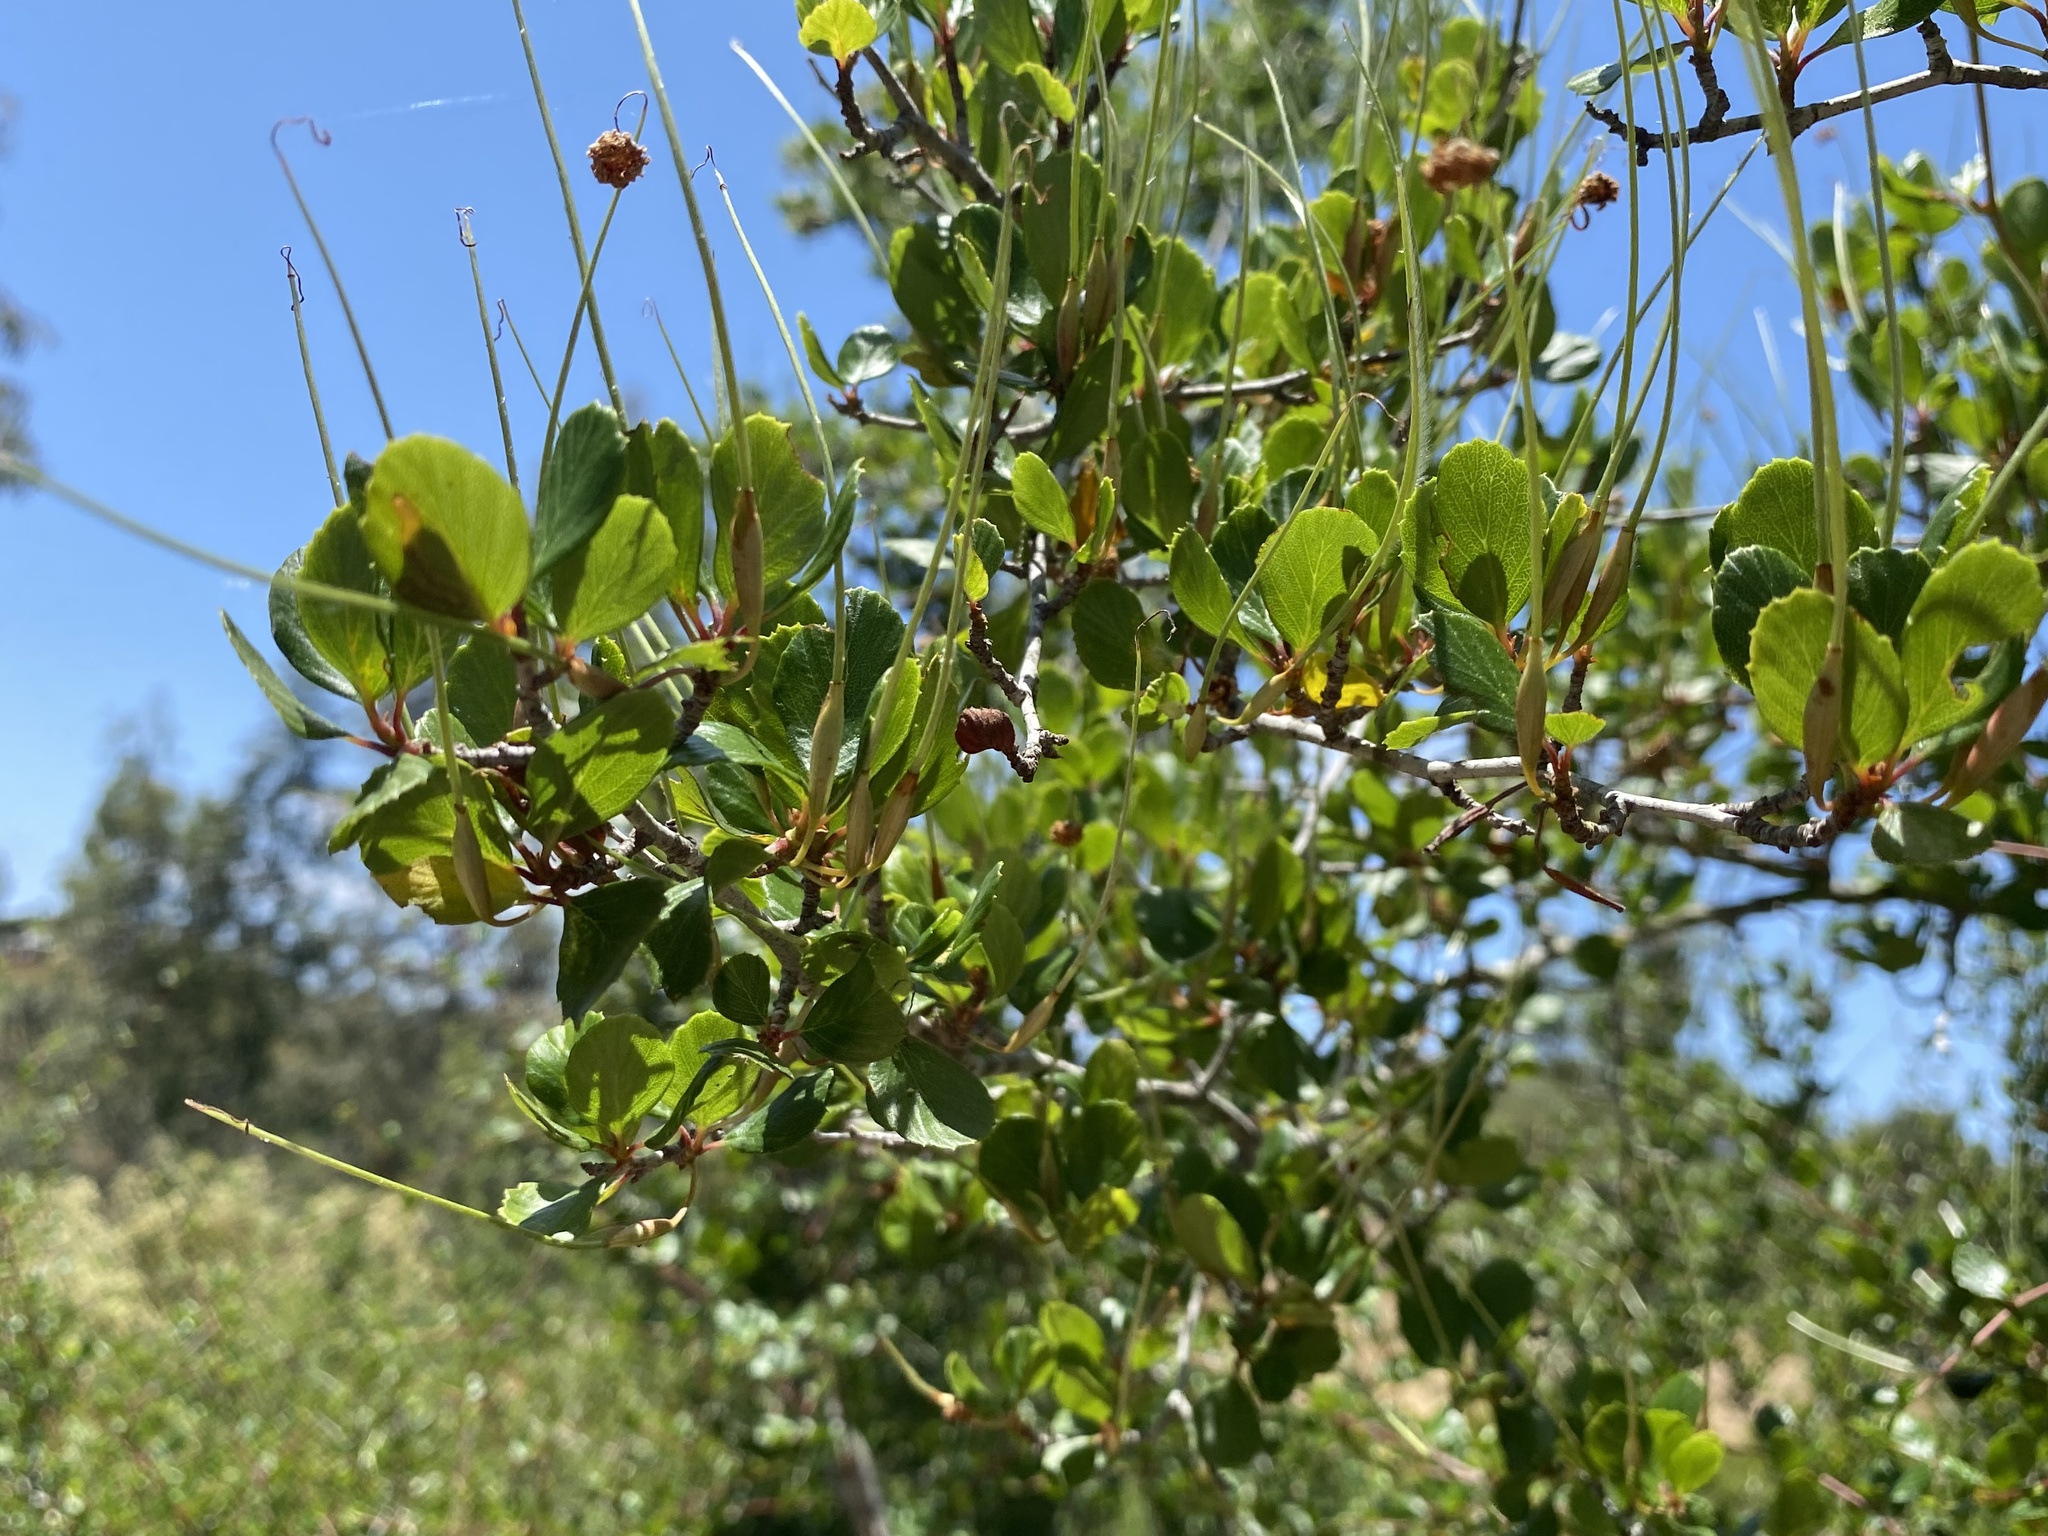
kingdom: Plantae
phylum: Tracheophyta
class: Magnoliopsida
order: Rosales
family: Rosaceae
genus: Cercocarpus
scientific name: Cercocarpus montanus
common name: Alder-leaf cercocarpus
